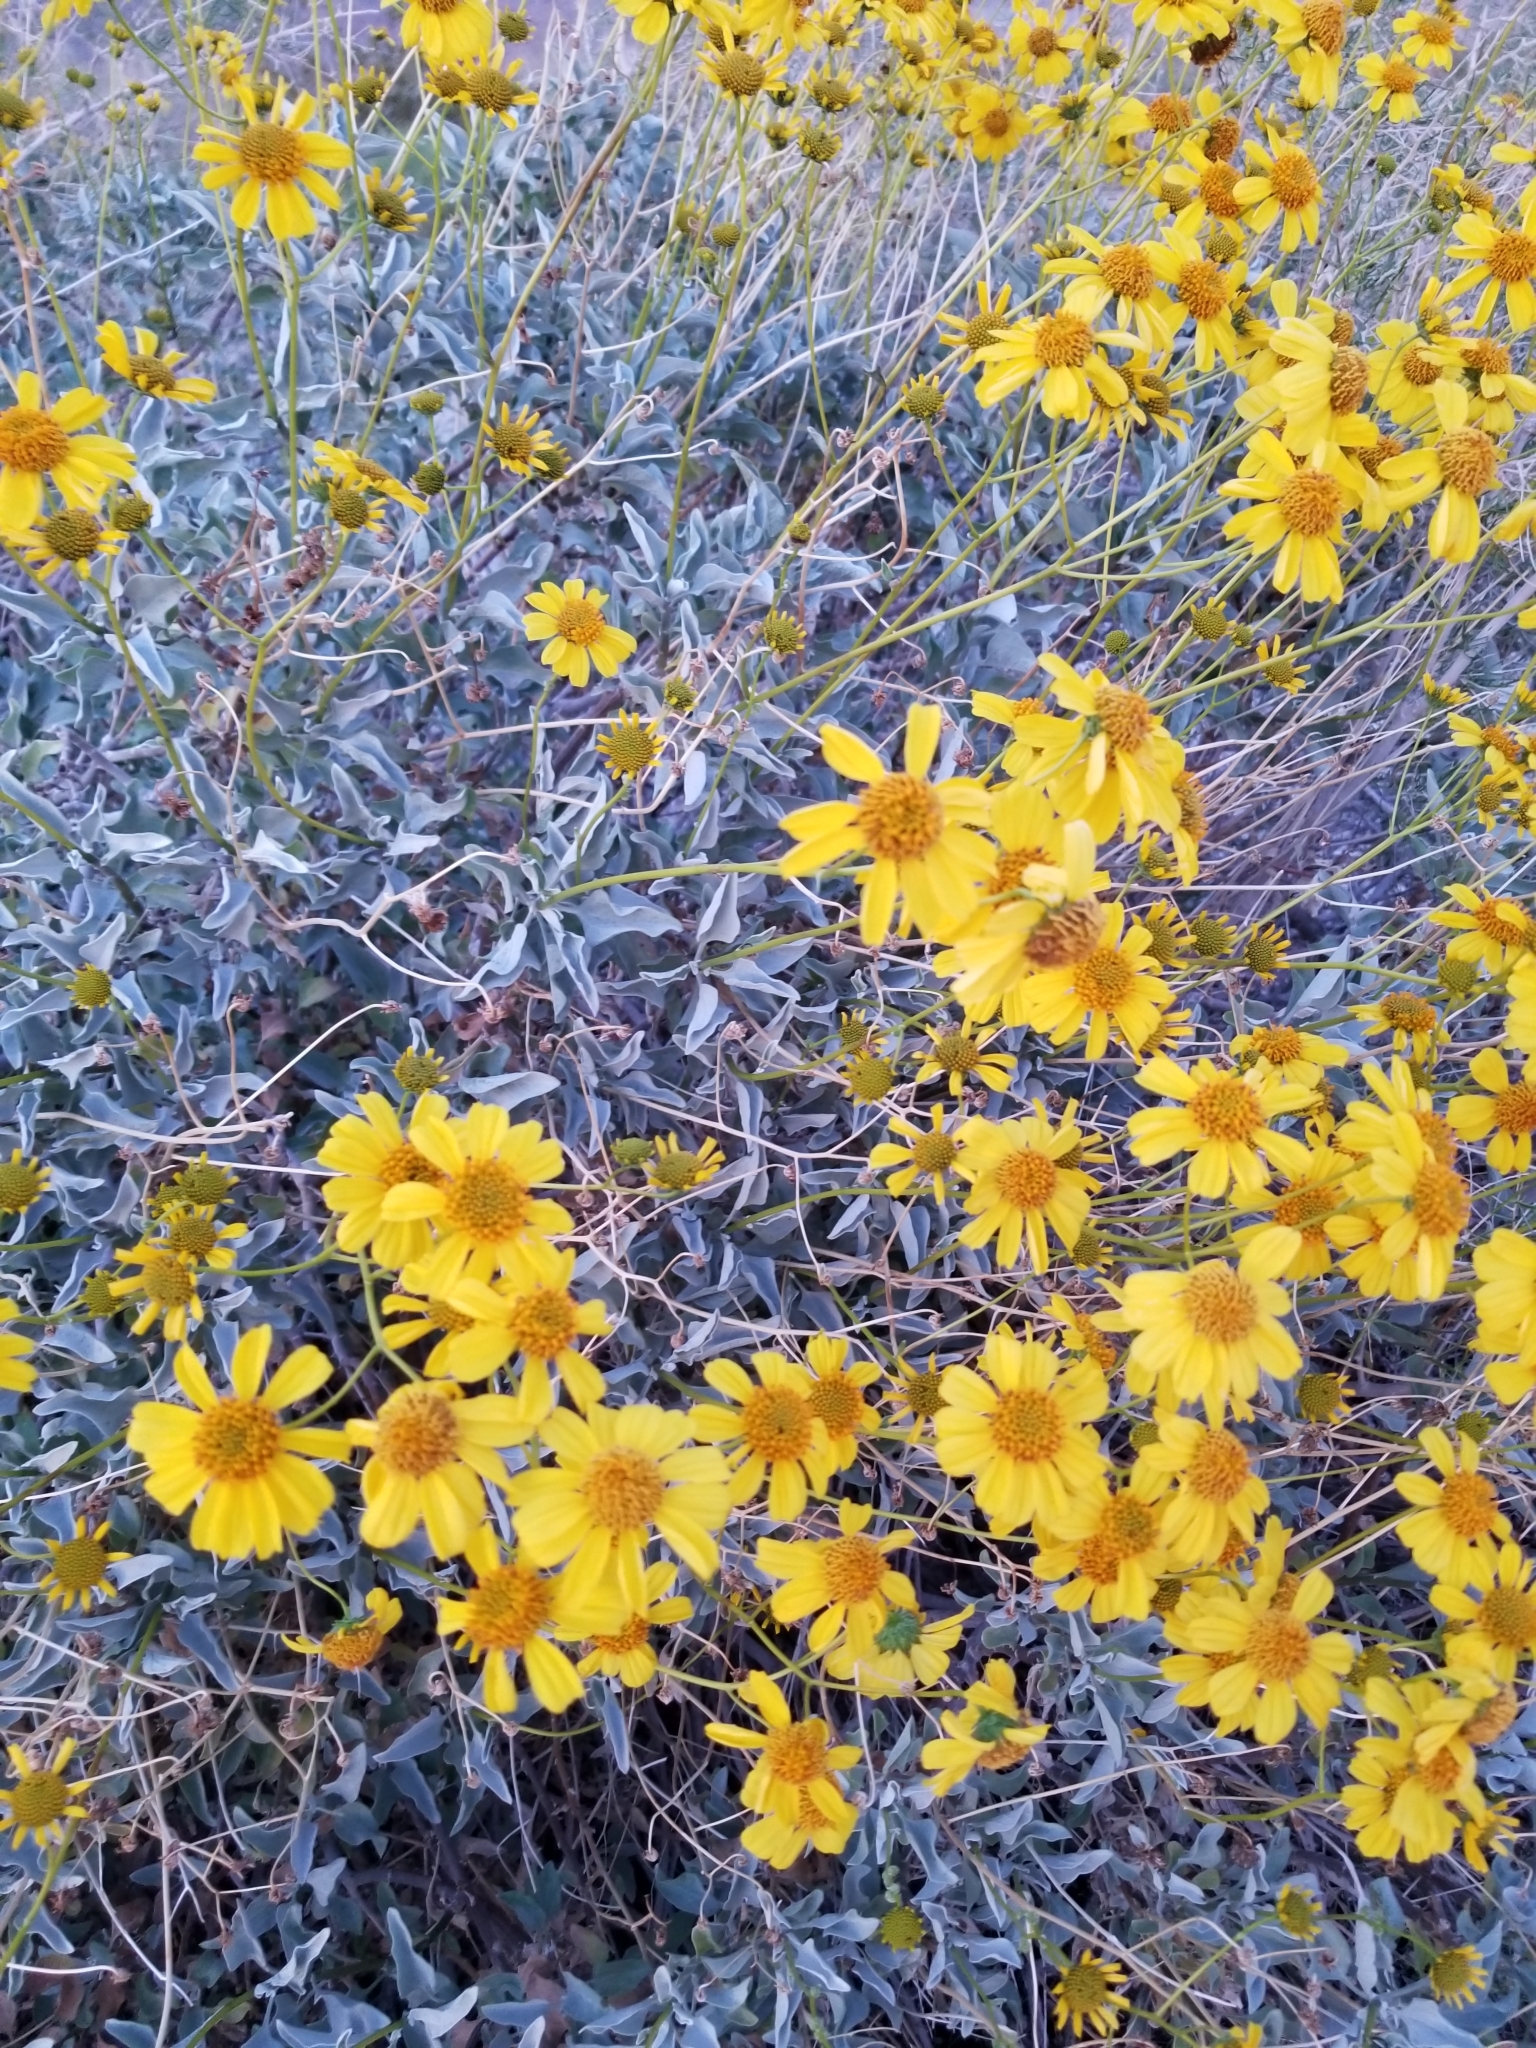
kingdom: Plantae
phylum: Tracheophyta
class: Magnoliopsida
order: Asterales
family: Asteraceae
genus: Encelia
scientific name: Encelia farinosa
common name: Brittlebush
